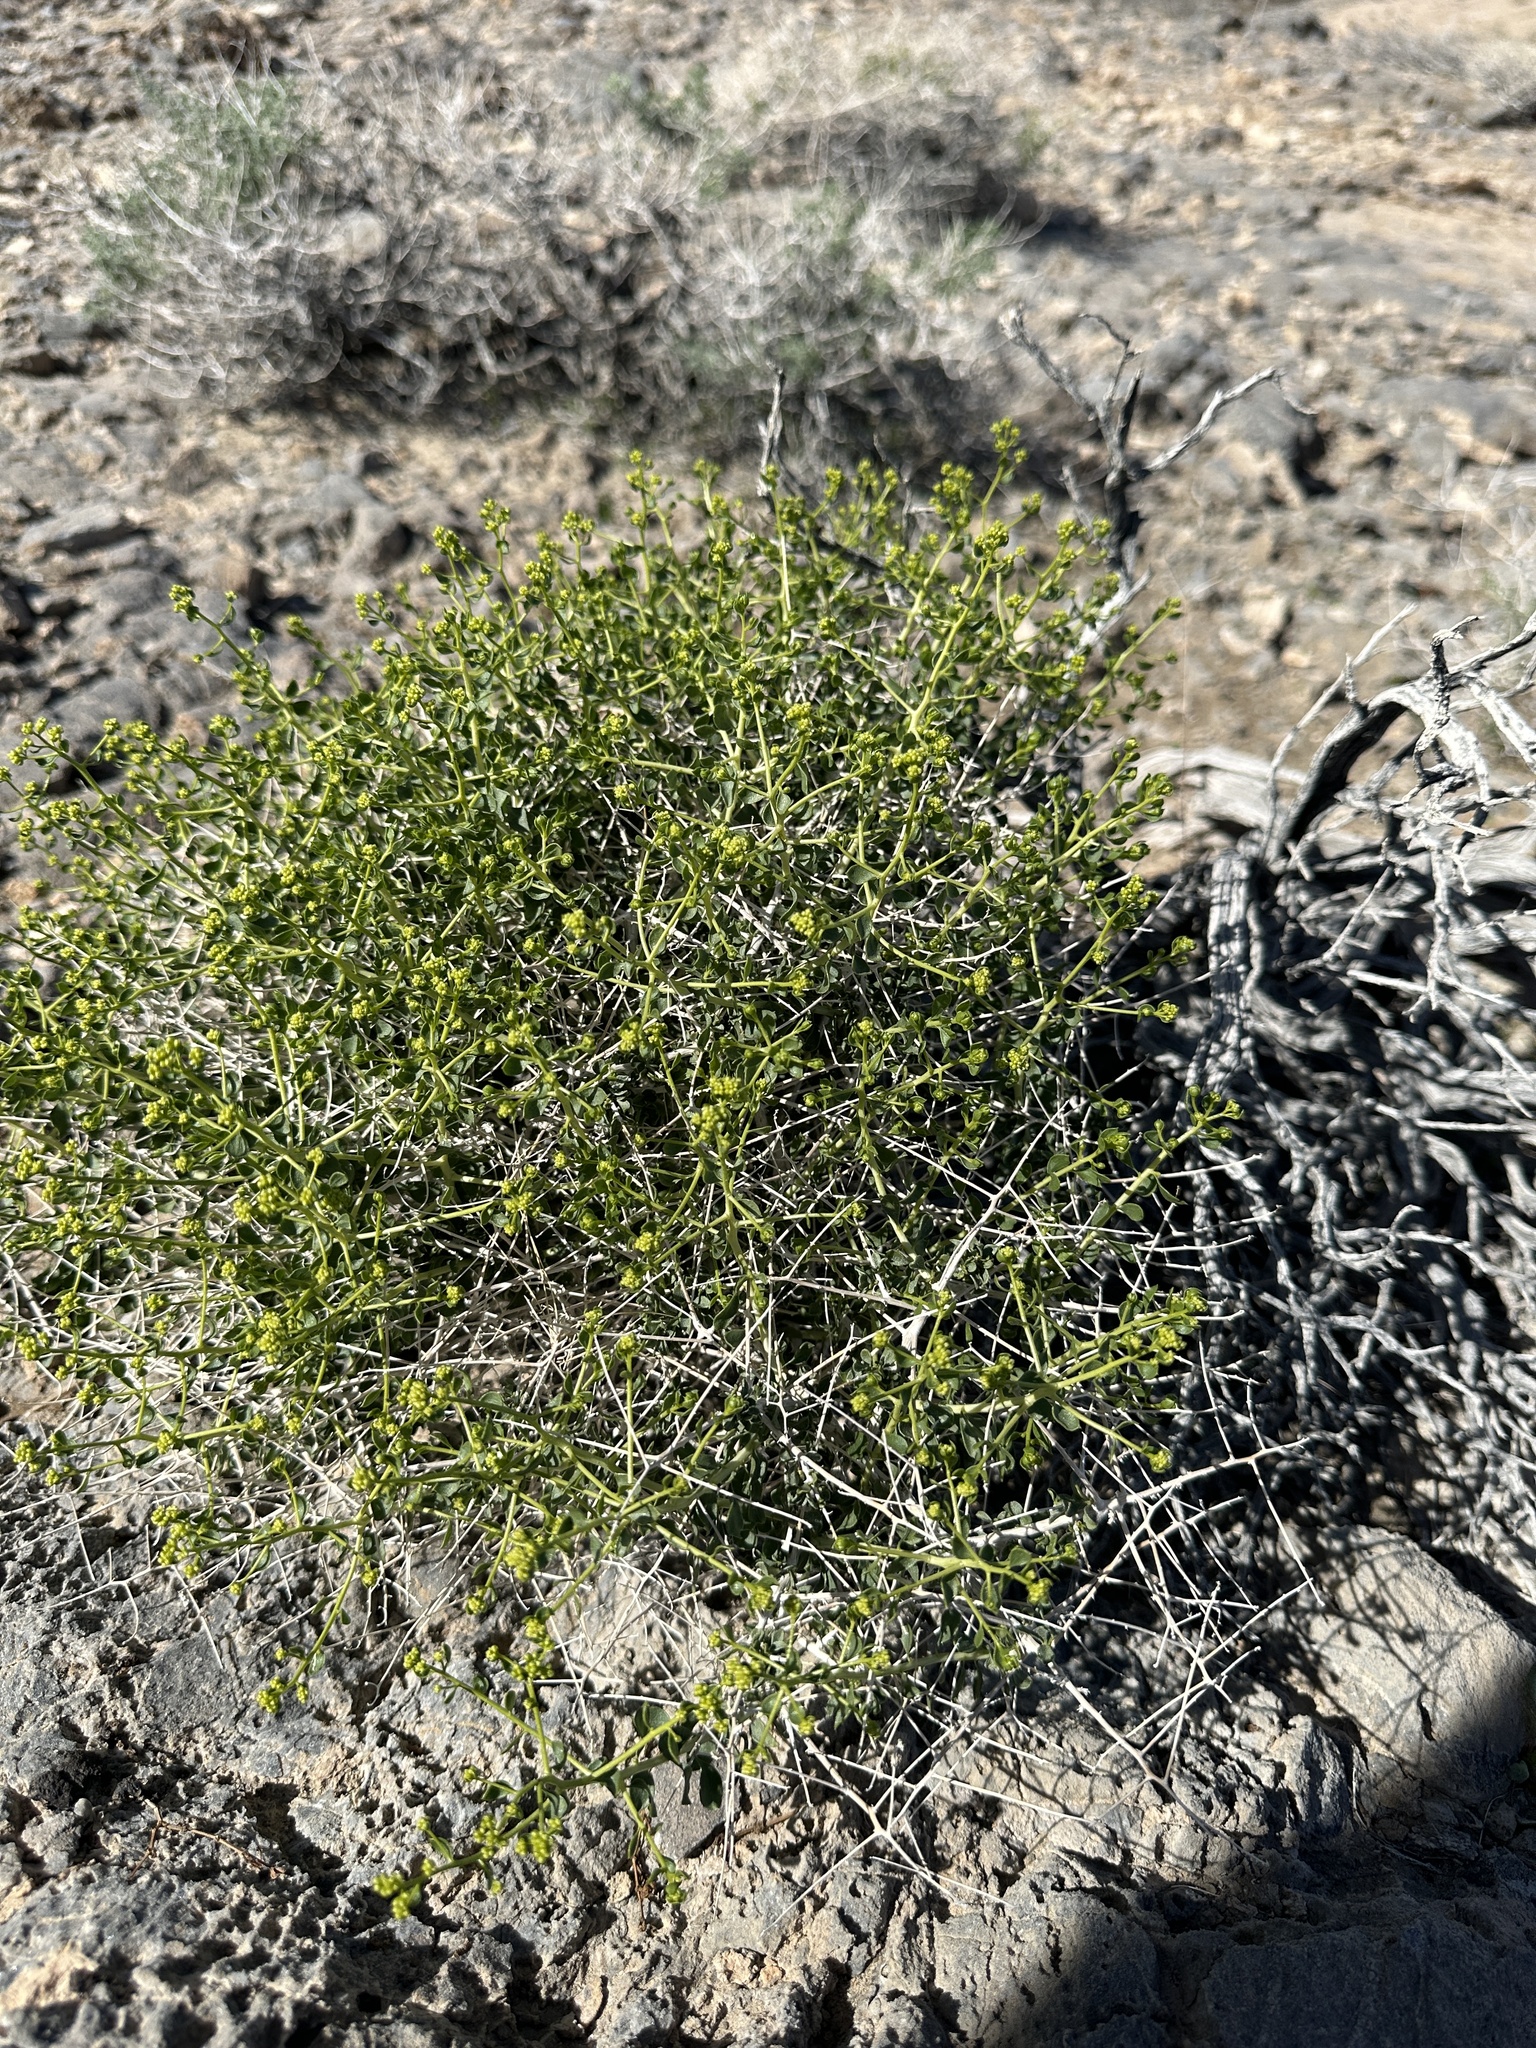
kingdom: Plantae
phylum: Tracheophyta
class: Magnoliopsida
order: Asterales
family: Asteraceae
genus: Amphipappus
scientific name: Amphipappus fremontii
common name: Fremont's chaffbush
